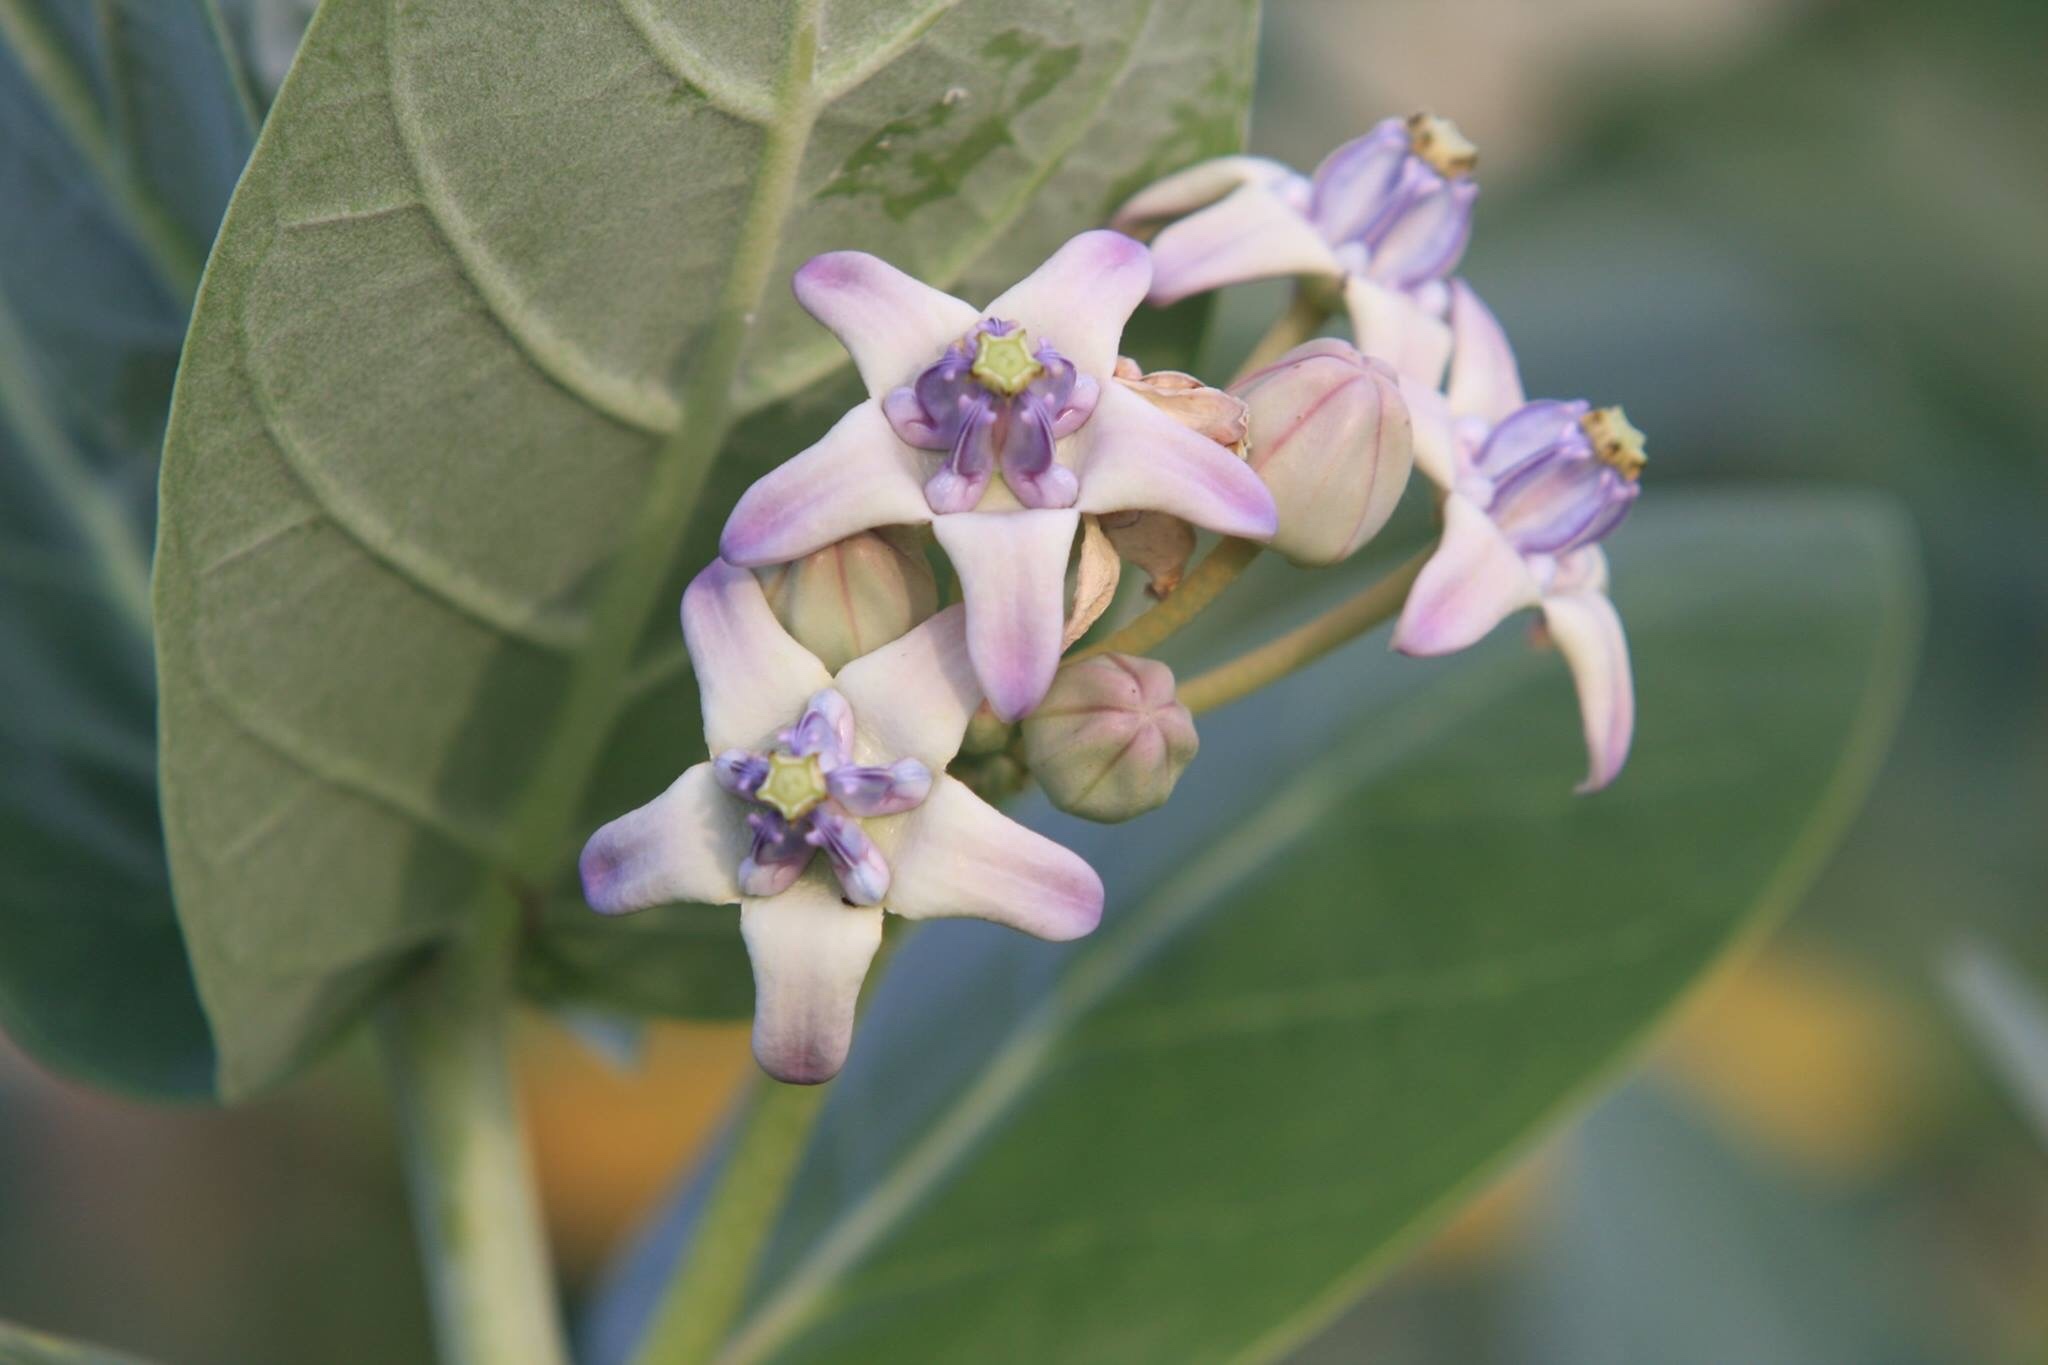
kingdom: Plantae
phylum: Tracheophyta
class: Magnoliopsida
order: Gentianales
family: Apocynaceae
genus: Calotropis
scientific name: Calotropis gigantea
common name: Crown flower
